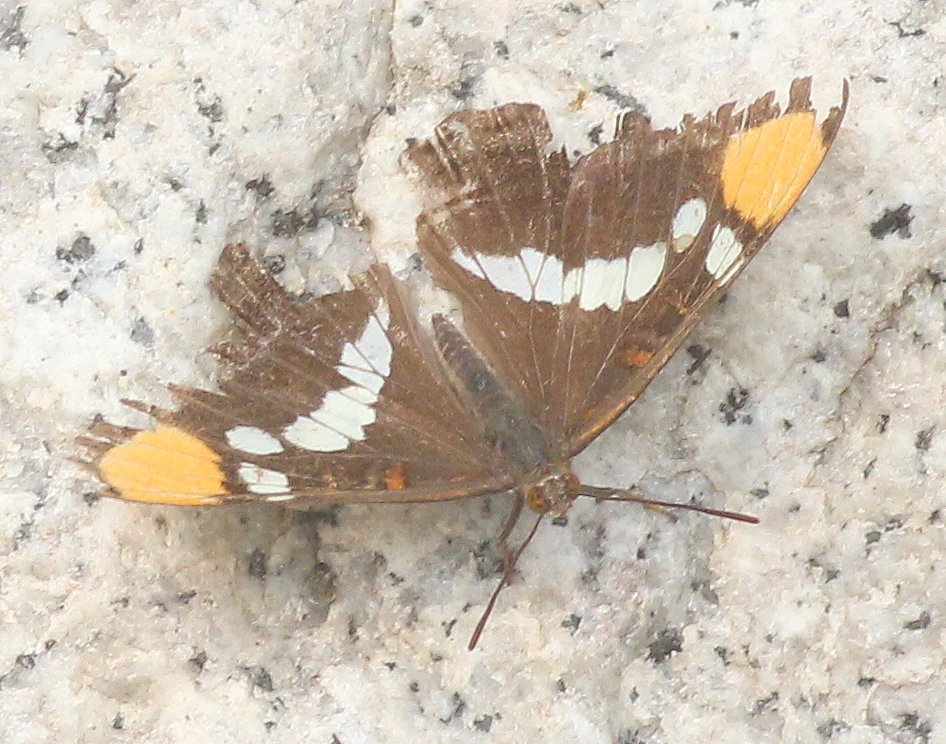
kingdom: Animalia
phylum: Arthropoda
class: Insecta
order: Lepidoptera
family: Nymphalidae
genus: Limenitis
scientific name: Limenitis bredowii
